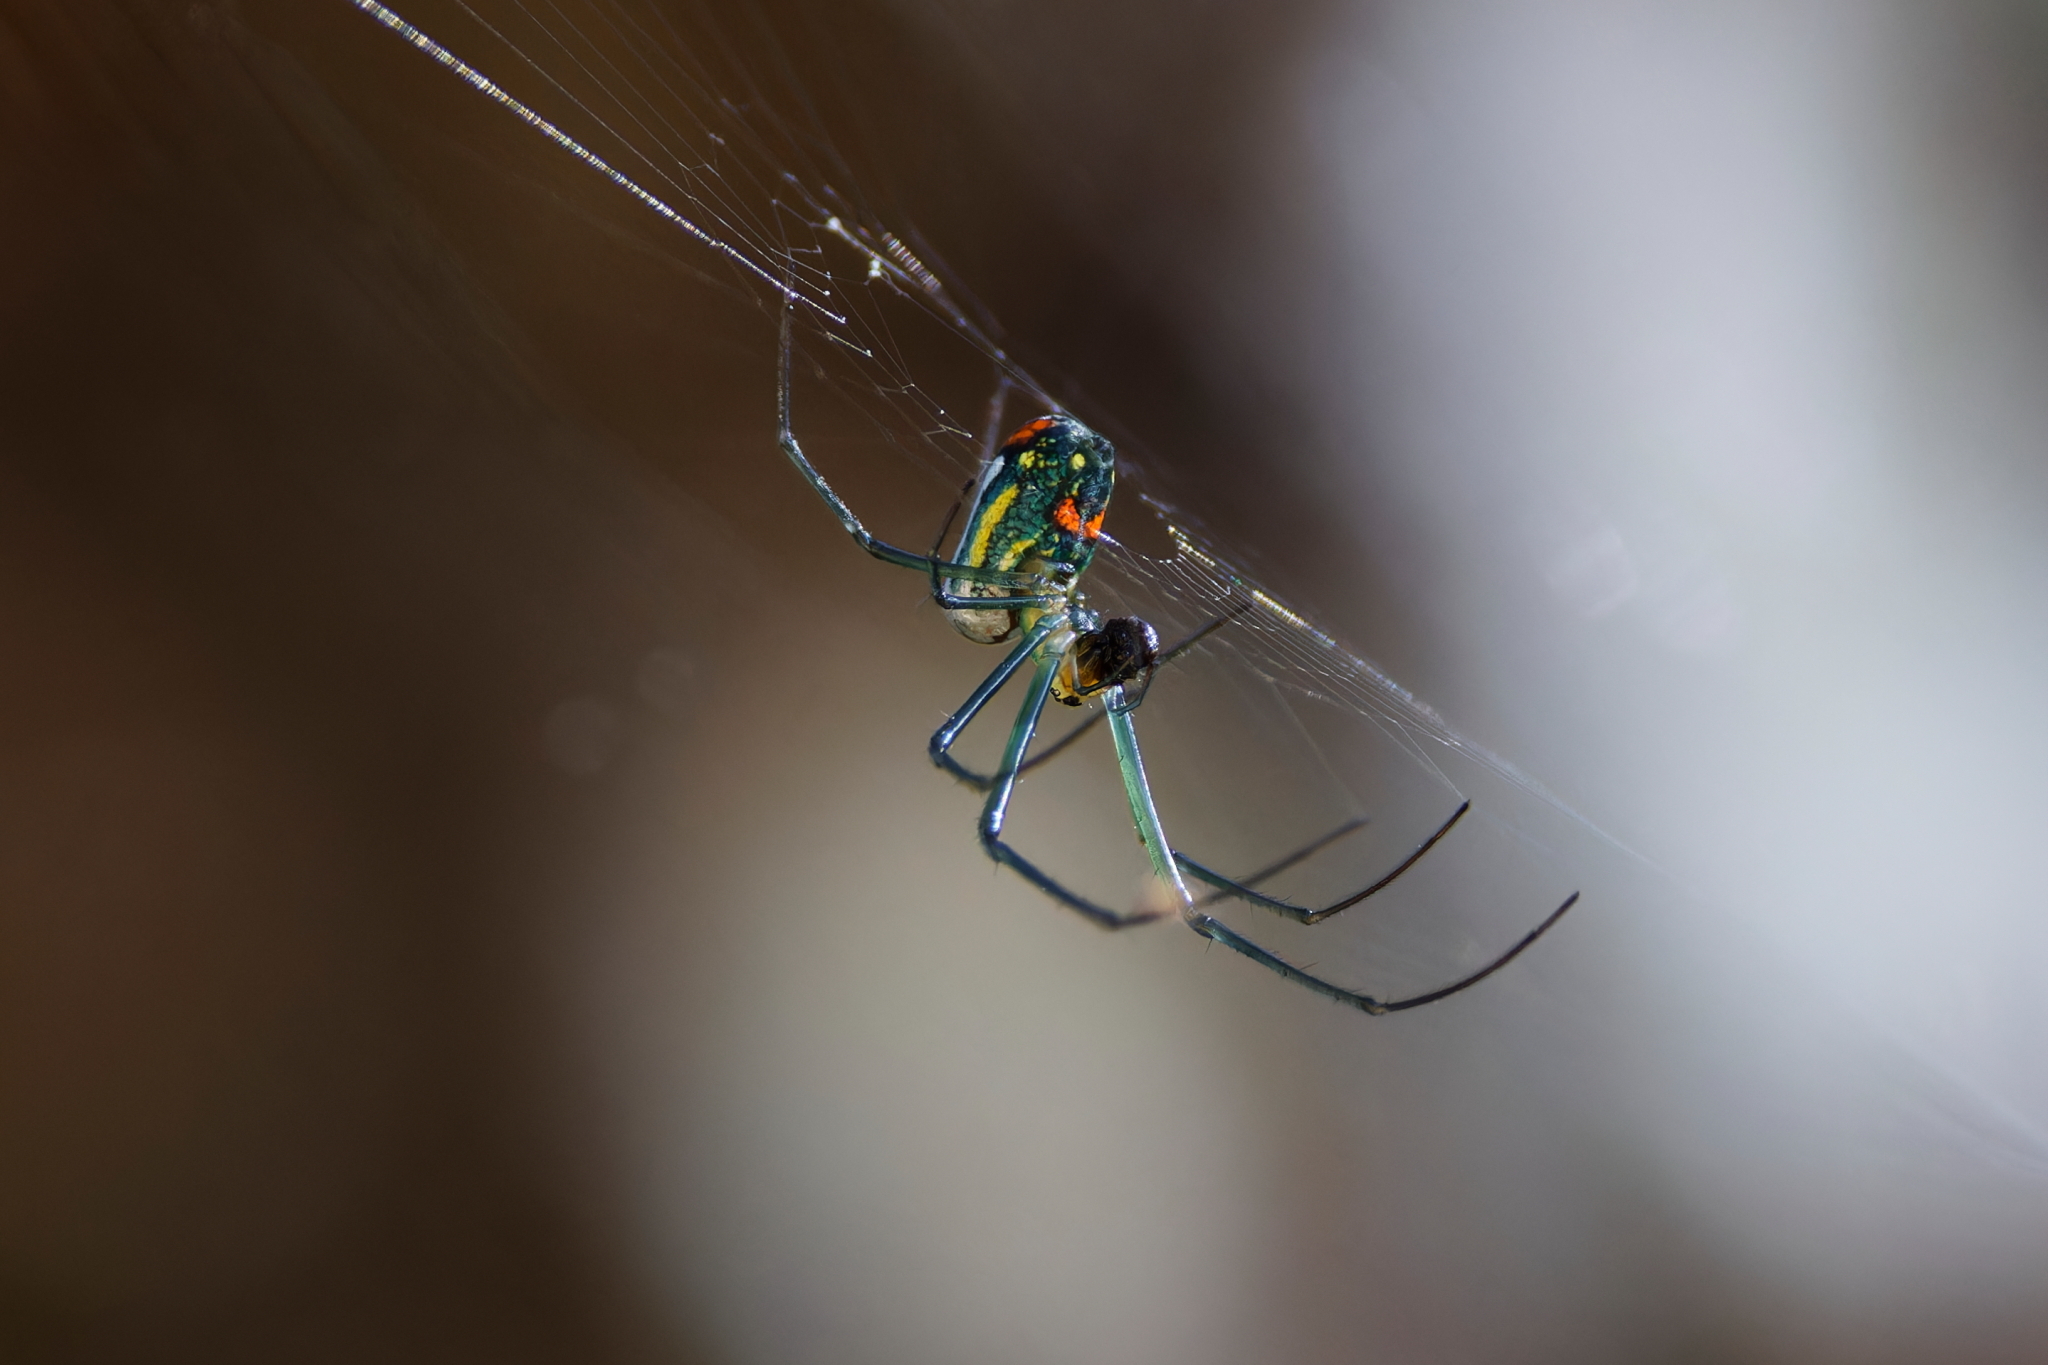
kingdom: Animalia
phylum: Arthropoda
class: Arachnida
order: Araneae
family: Tetragnathidae
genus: Leucauge
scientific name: Leucauge argyrobapta
